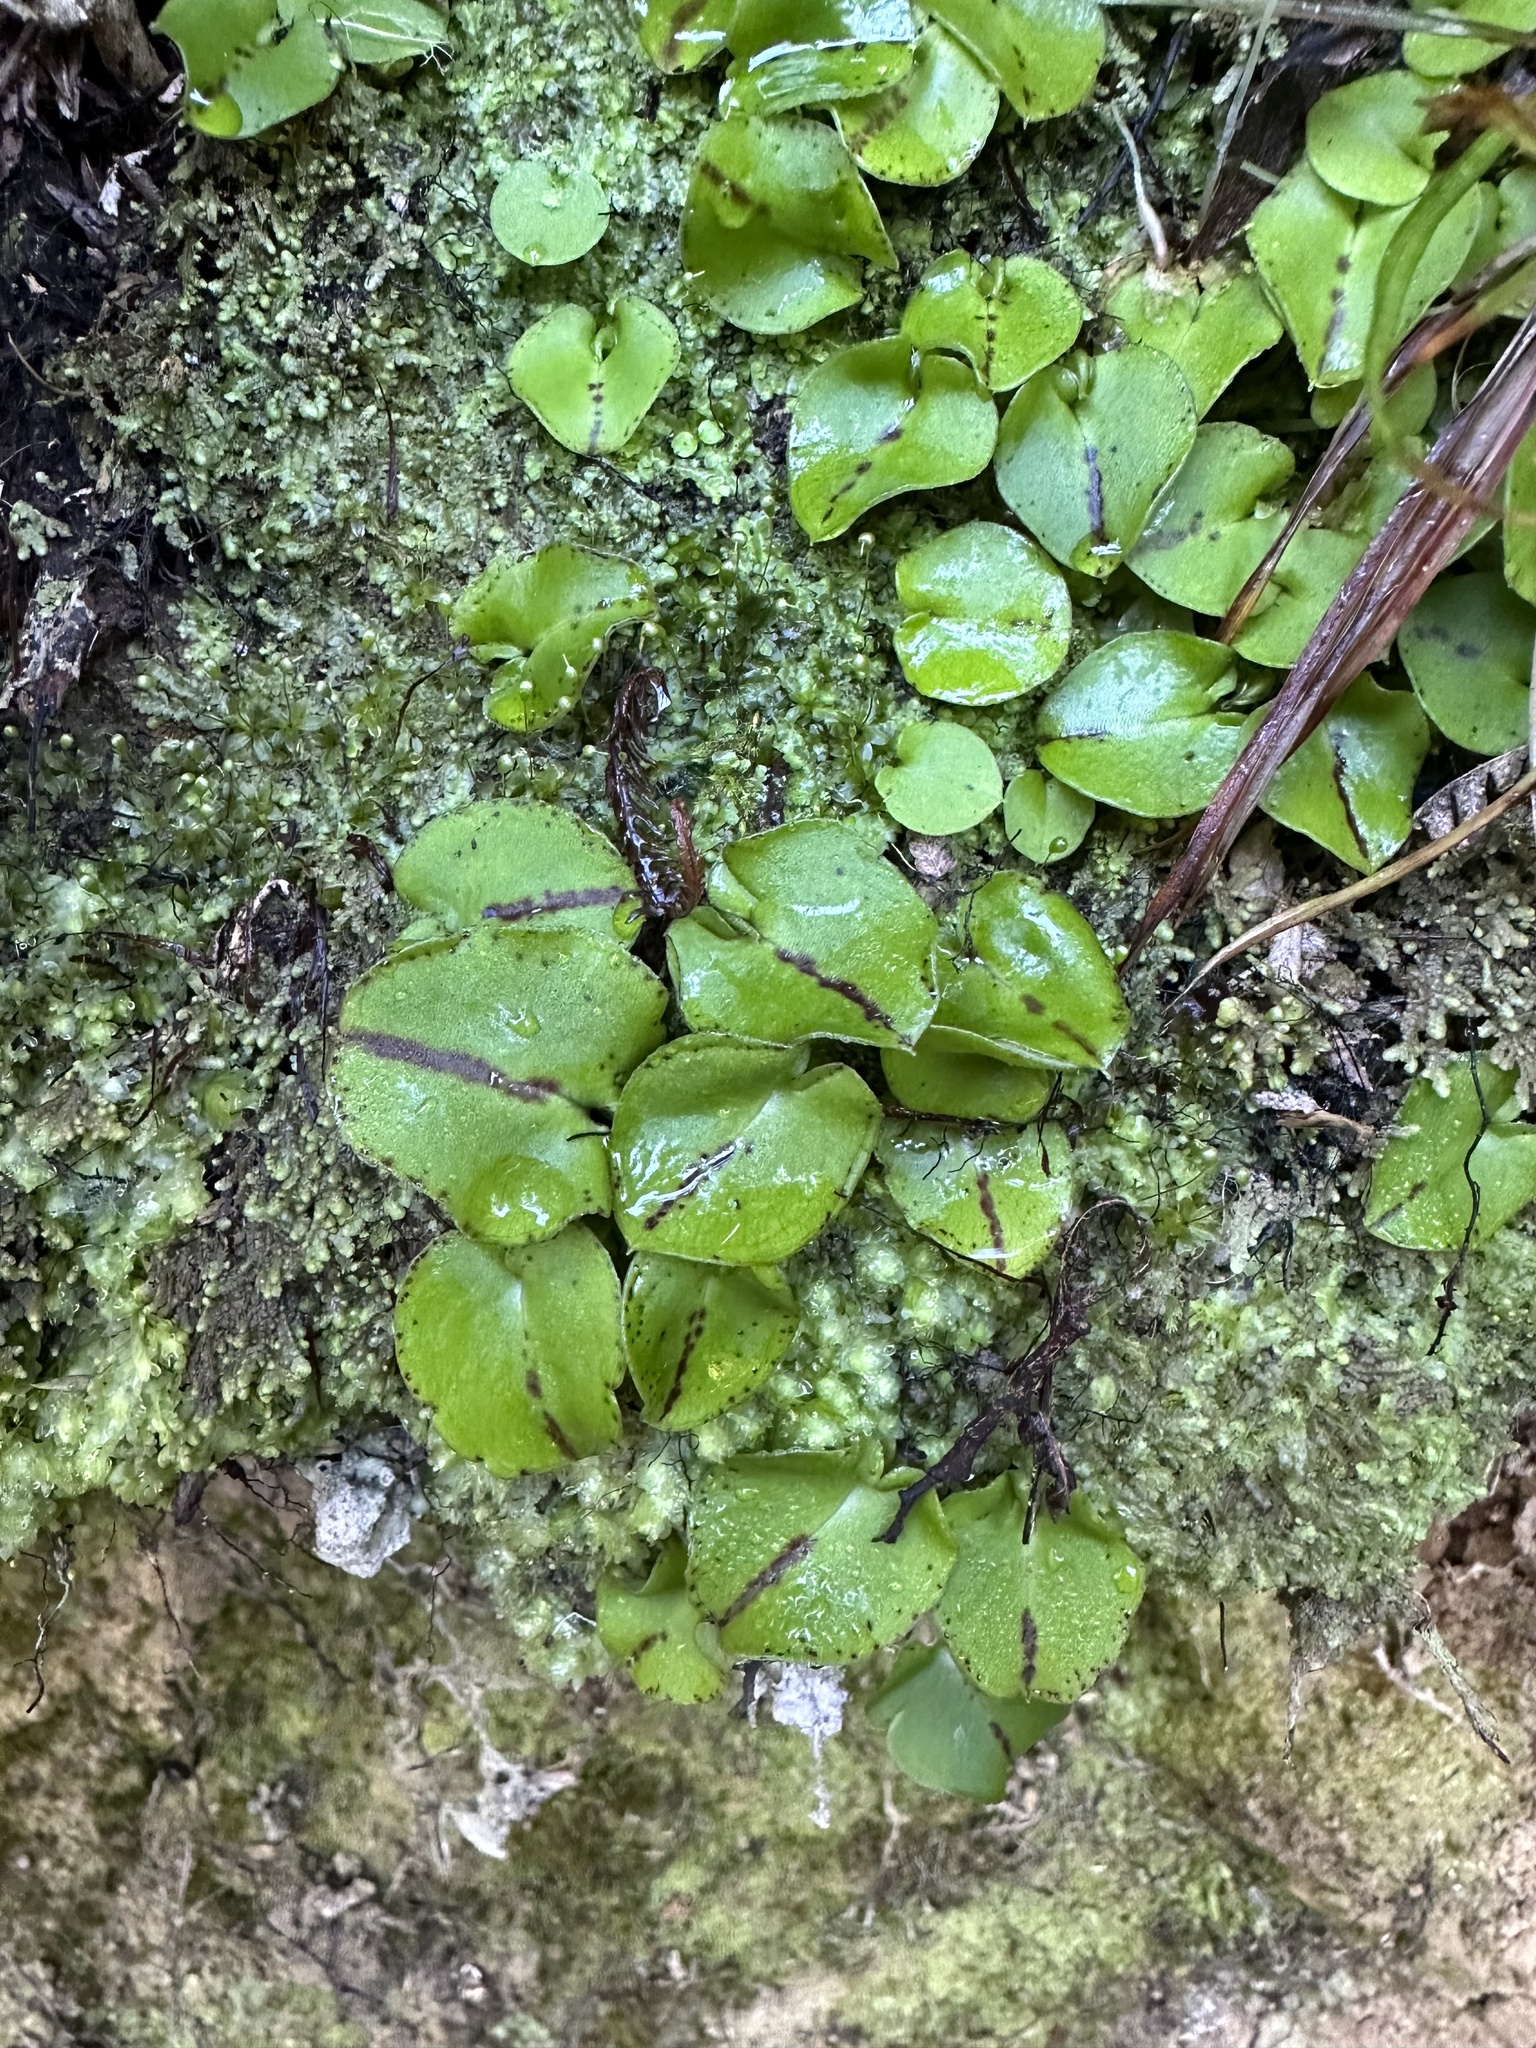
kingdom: Plantae
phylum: Tracheophyta
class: Liliopsida
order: Asparagales
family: Orchidaceae
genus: Corybas
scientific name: Corybas macranthus
